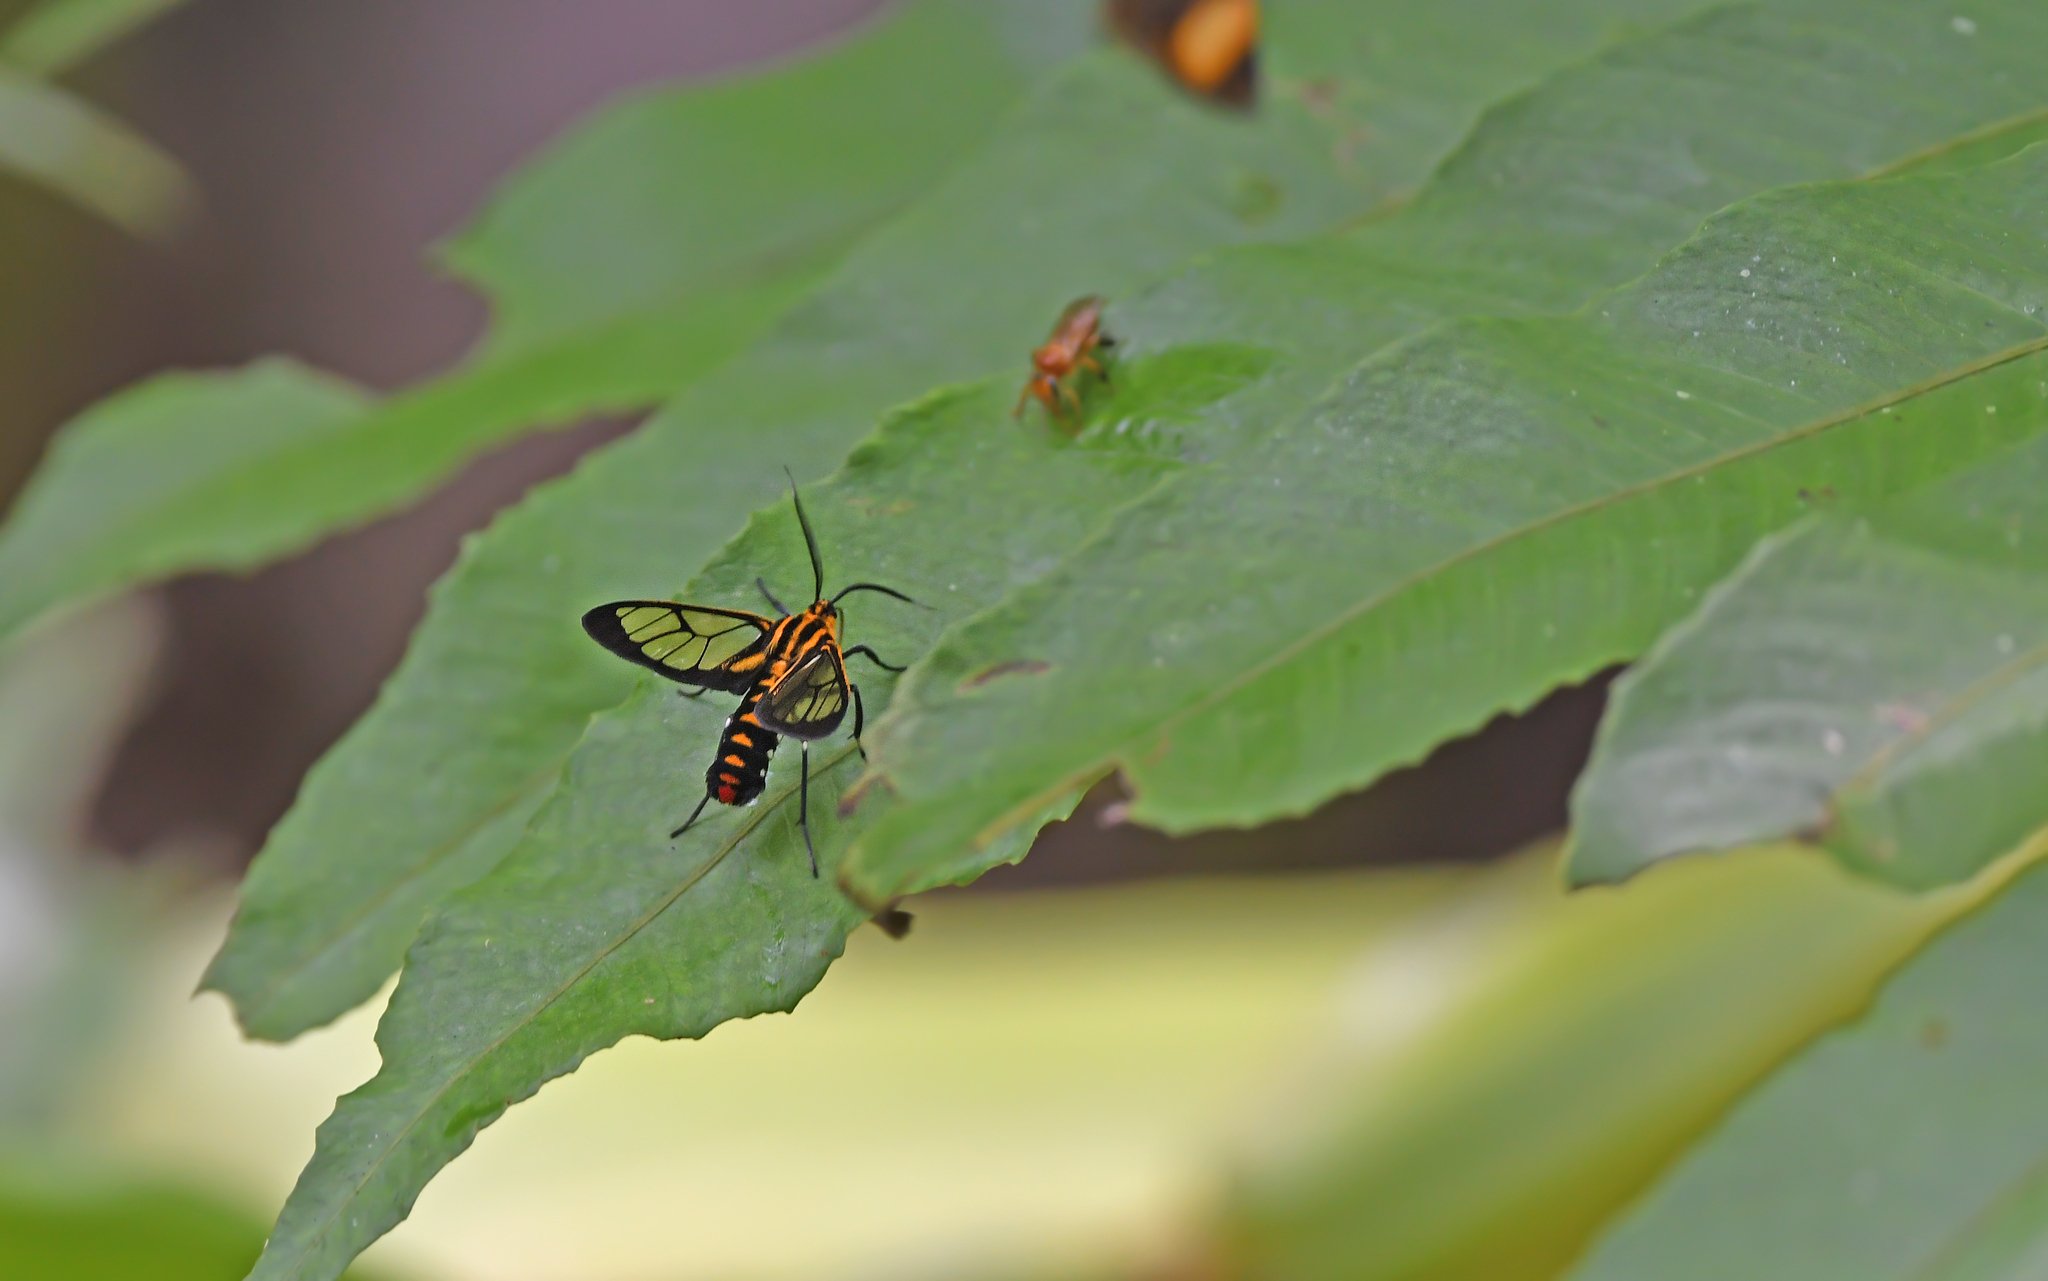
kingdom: Animalia
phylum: Arthropoda
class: Insecta
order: Lepidoptera
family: Erebidae
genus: Paraethria
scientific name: Paraethria flavosignata
